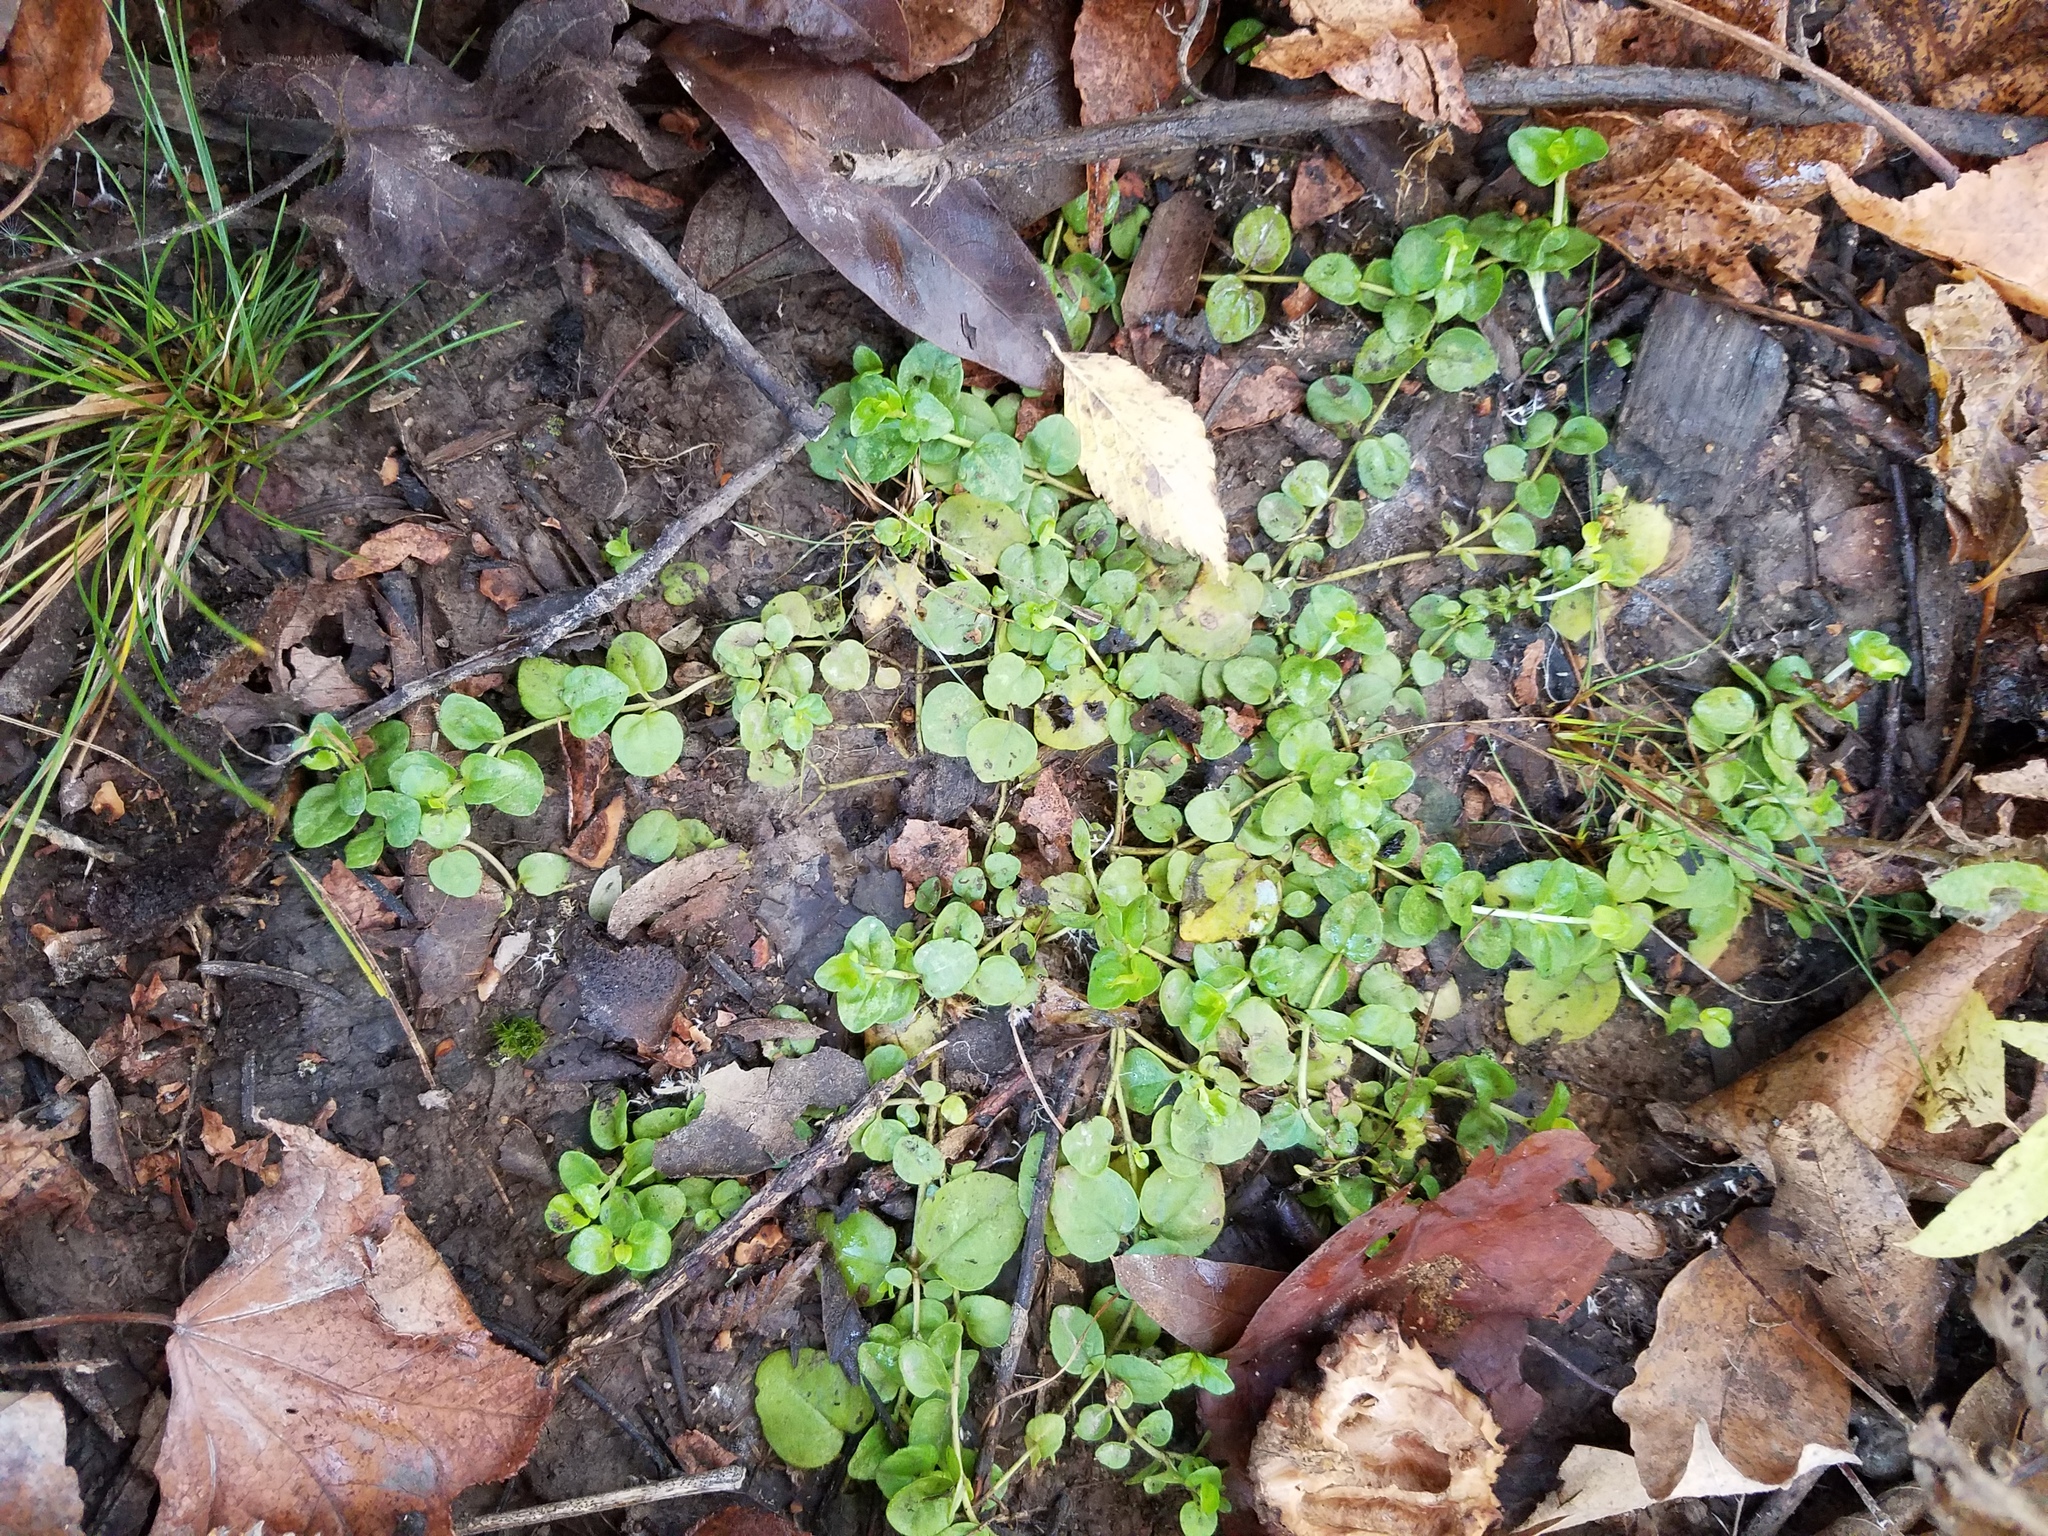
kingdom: Plantae
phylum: Tracheophyta
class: Magnoliopsida
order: Lamiales
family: Plantaginaceae
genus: Veronica
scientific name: Veronica serpyllifolia
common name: Thyme-leaved speedwell
